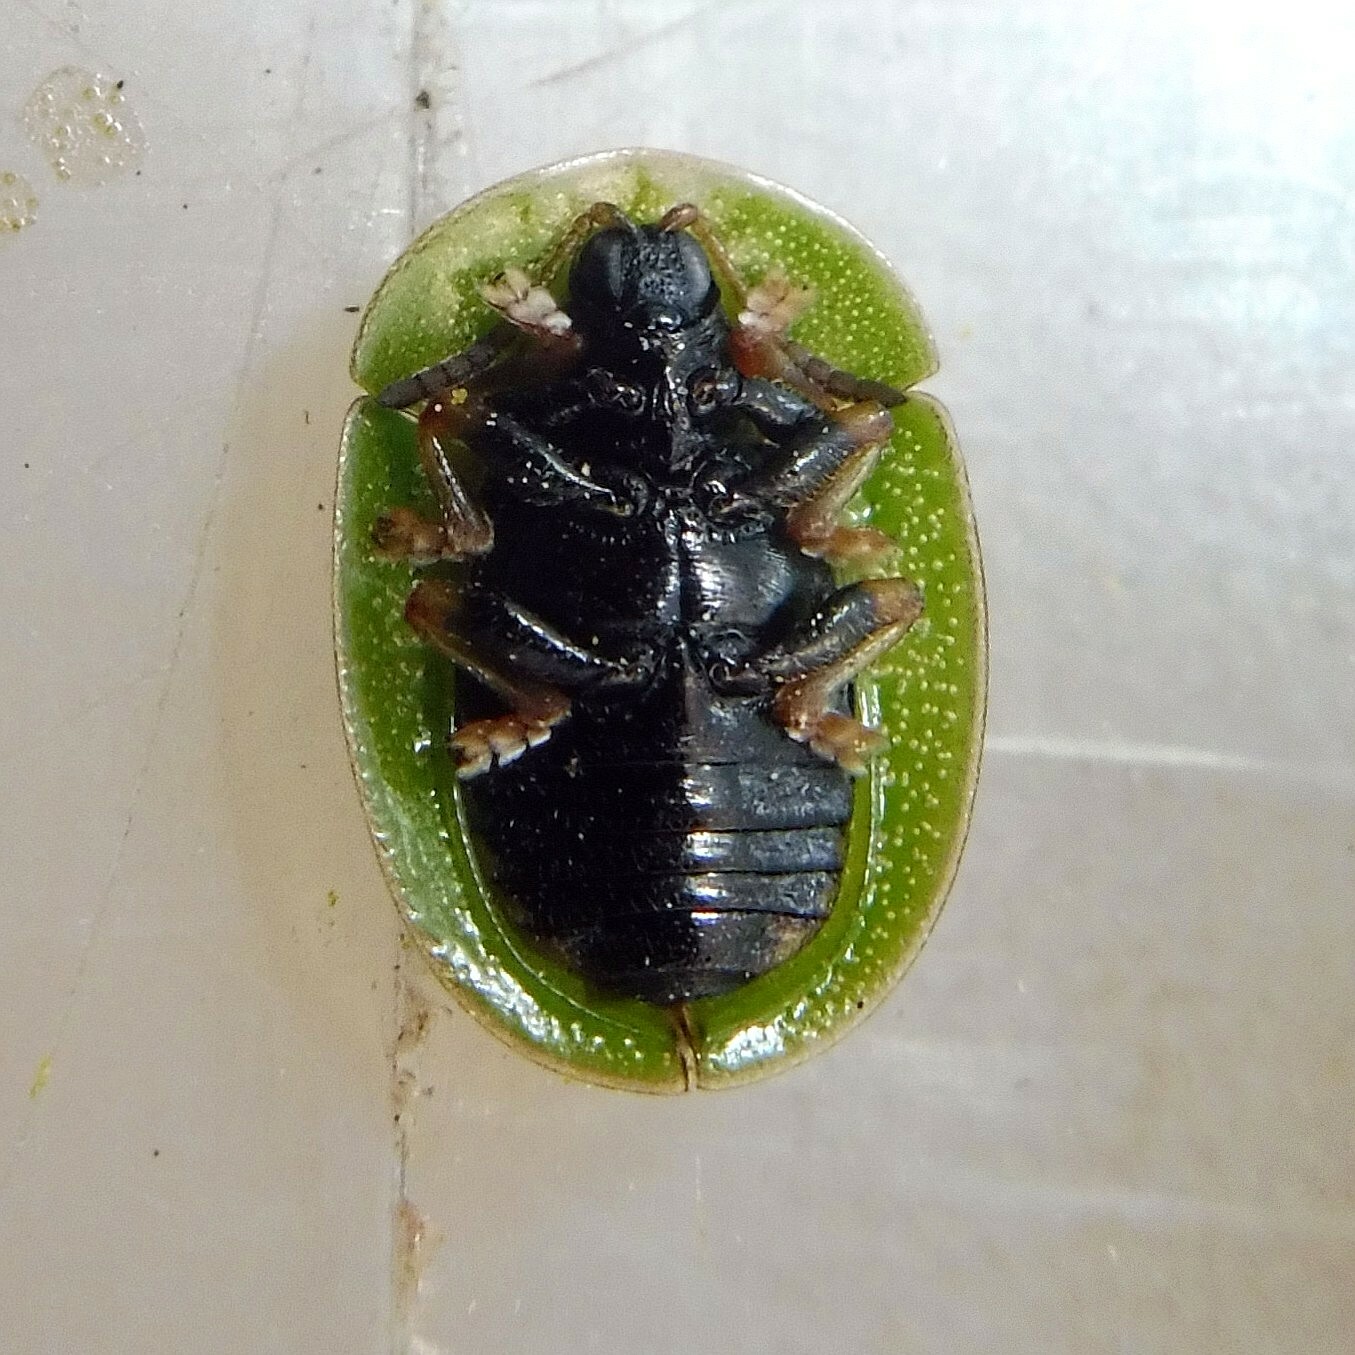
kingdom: Animalia
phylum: Arthropoda
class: Insecta
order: Coleoptera
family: Chrysomelidae
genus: Cassida
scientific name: Cassida rubiginosa
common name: Thistle tortoise beetle
